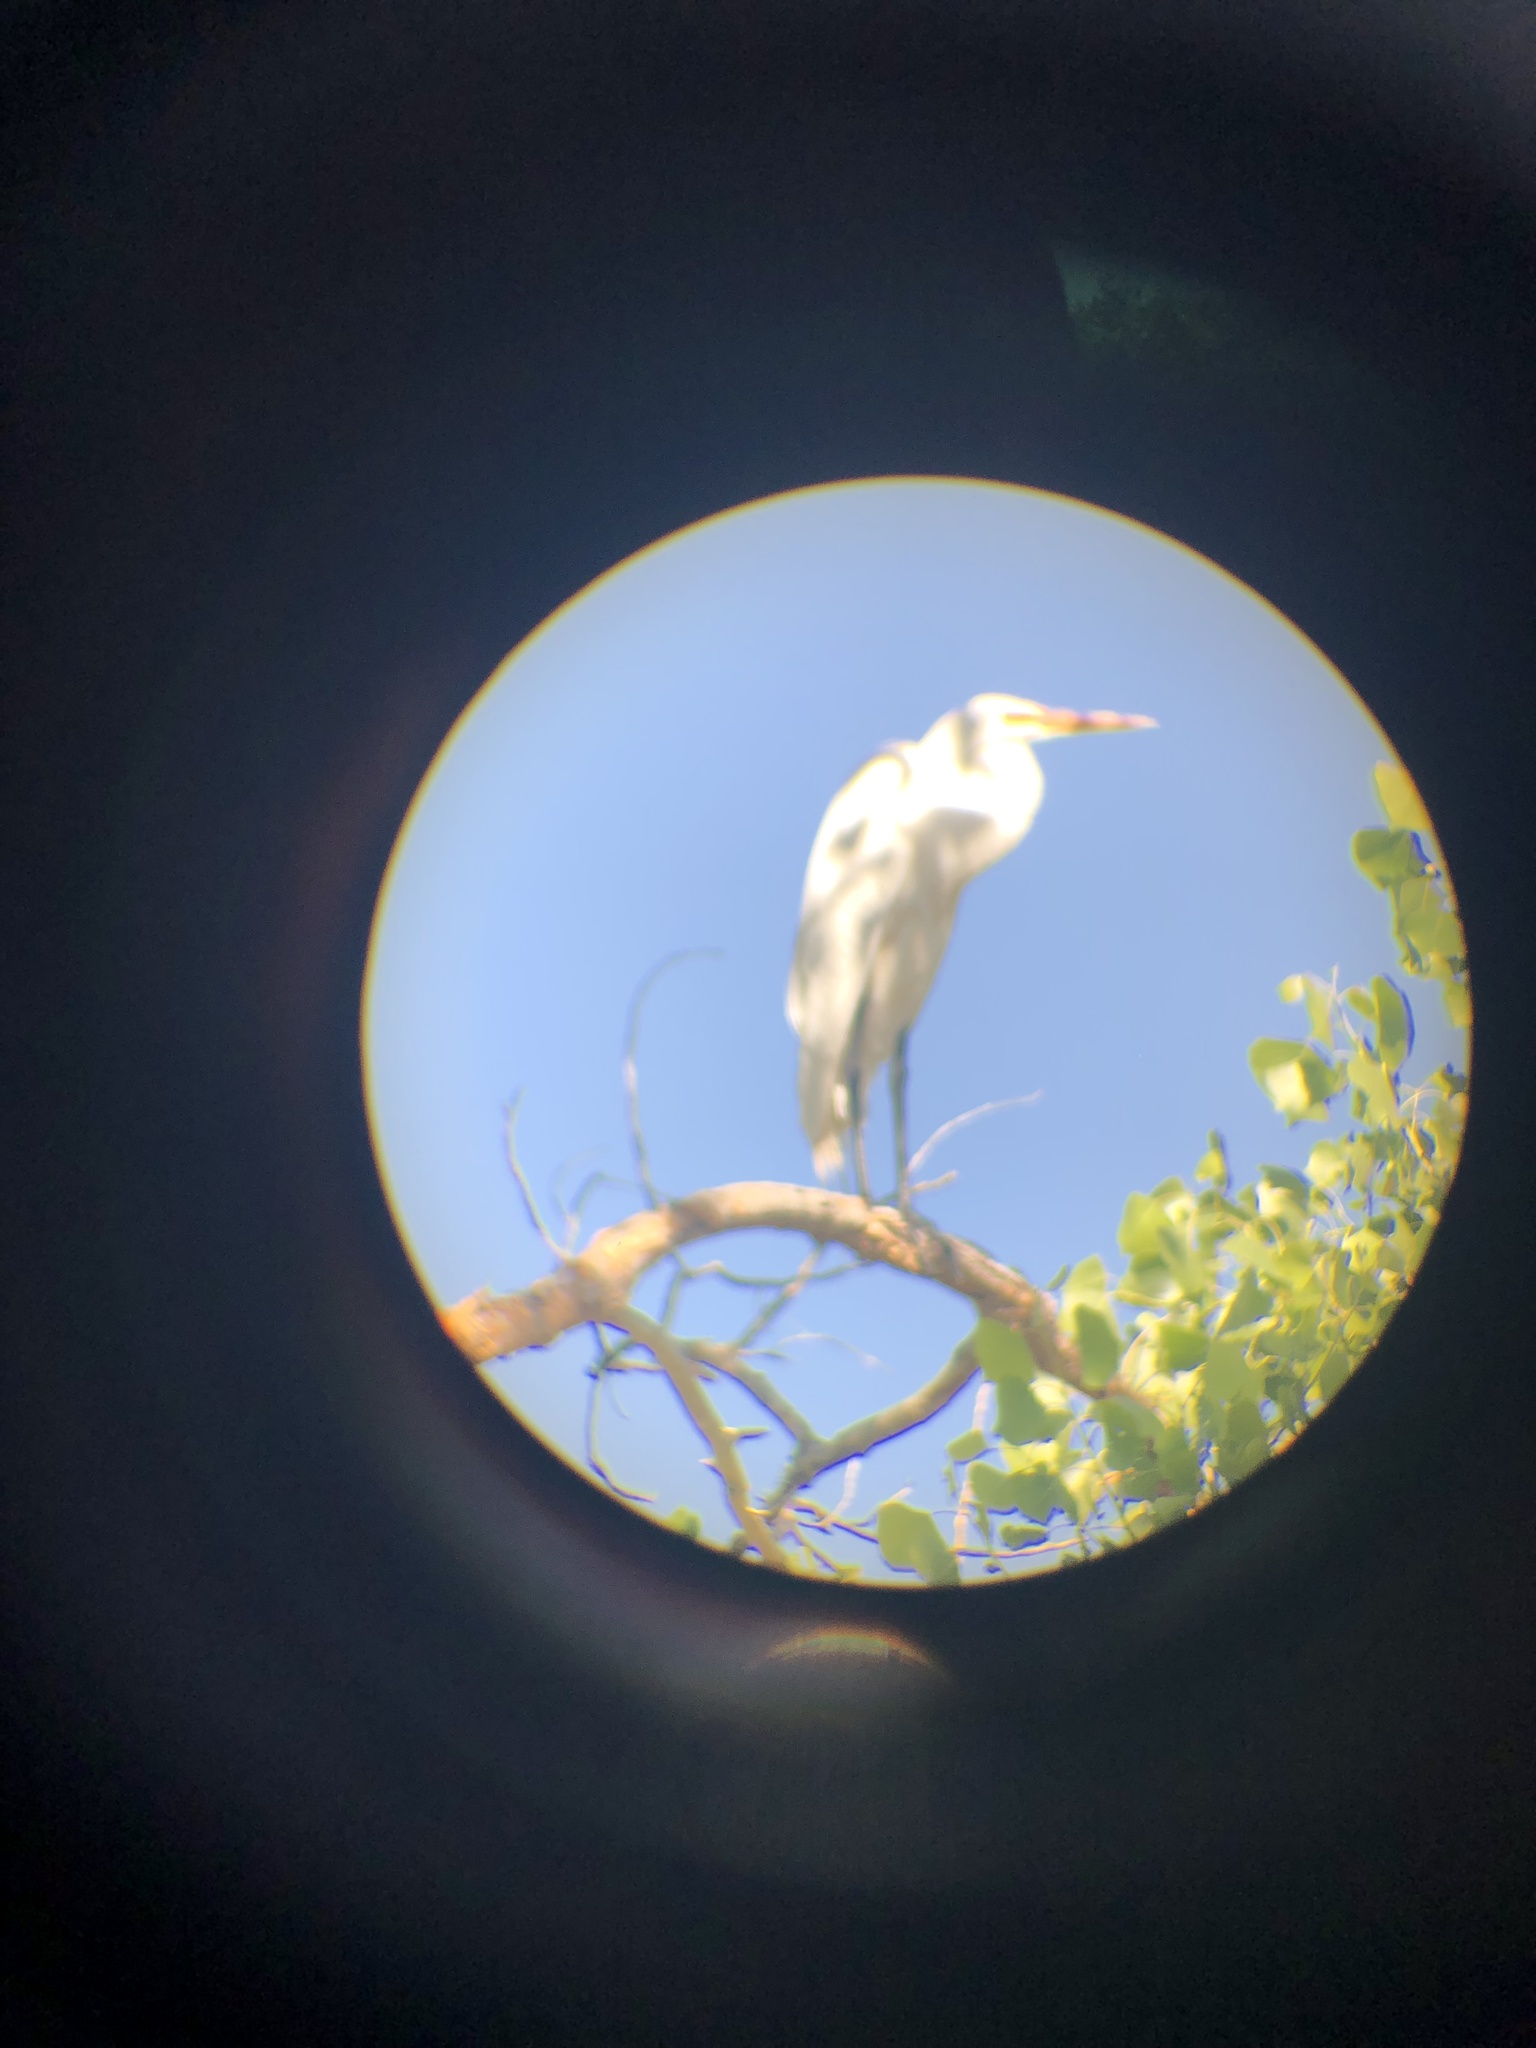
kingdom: Animalia
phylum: Chordata
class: Aves
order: Pelecaniformes
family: Ardeidae
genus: Ardea
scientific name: Ardea alba
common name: Great egret
